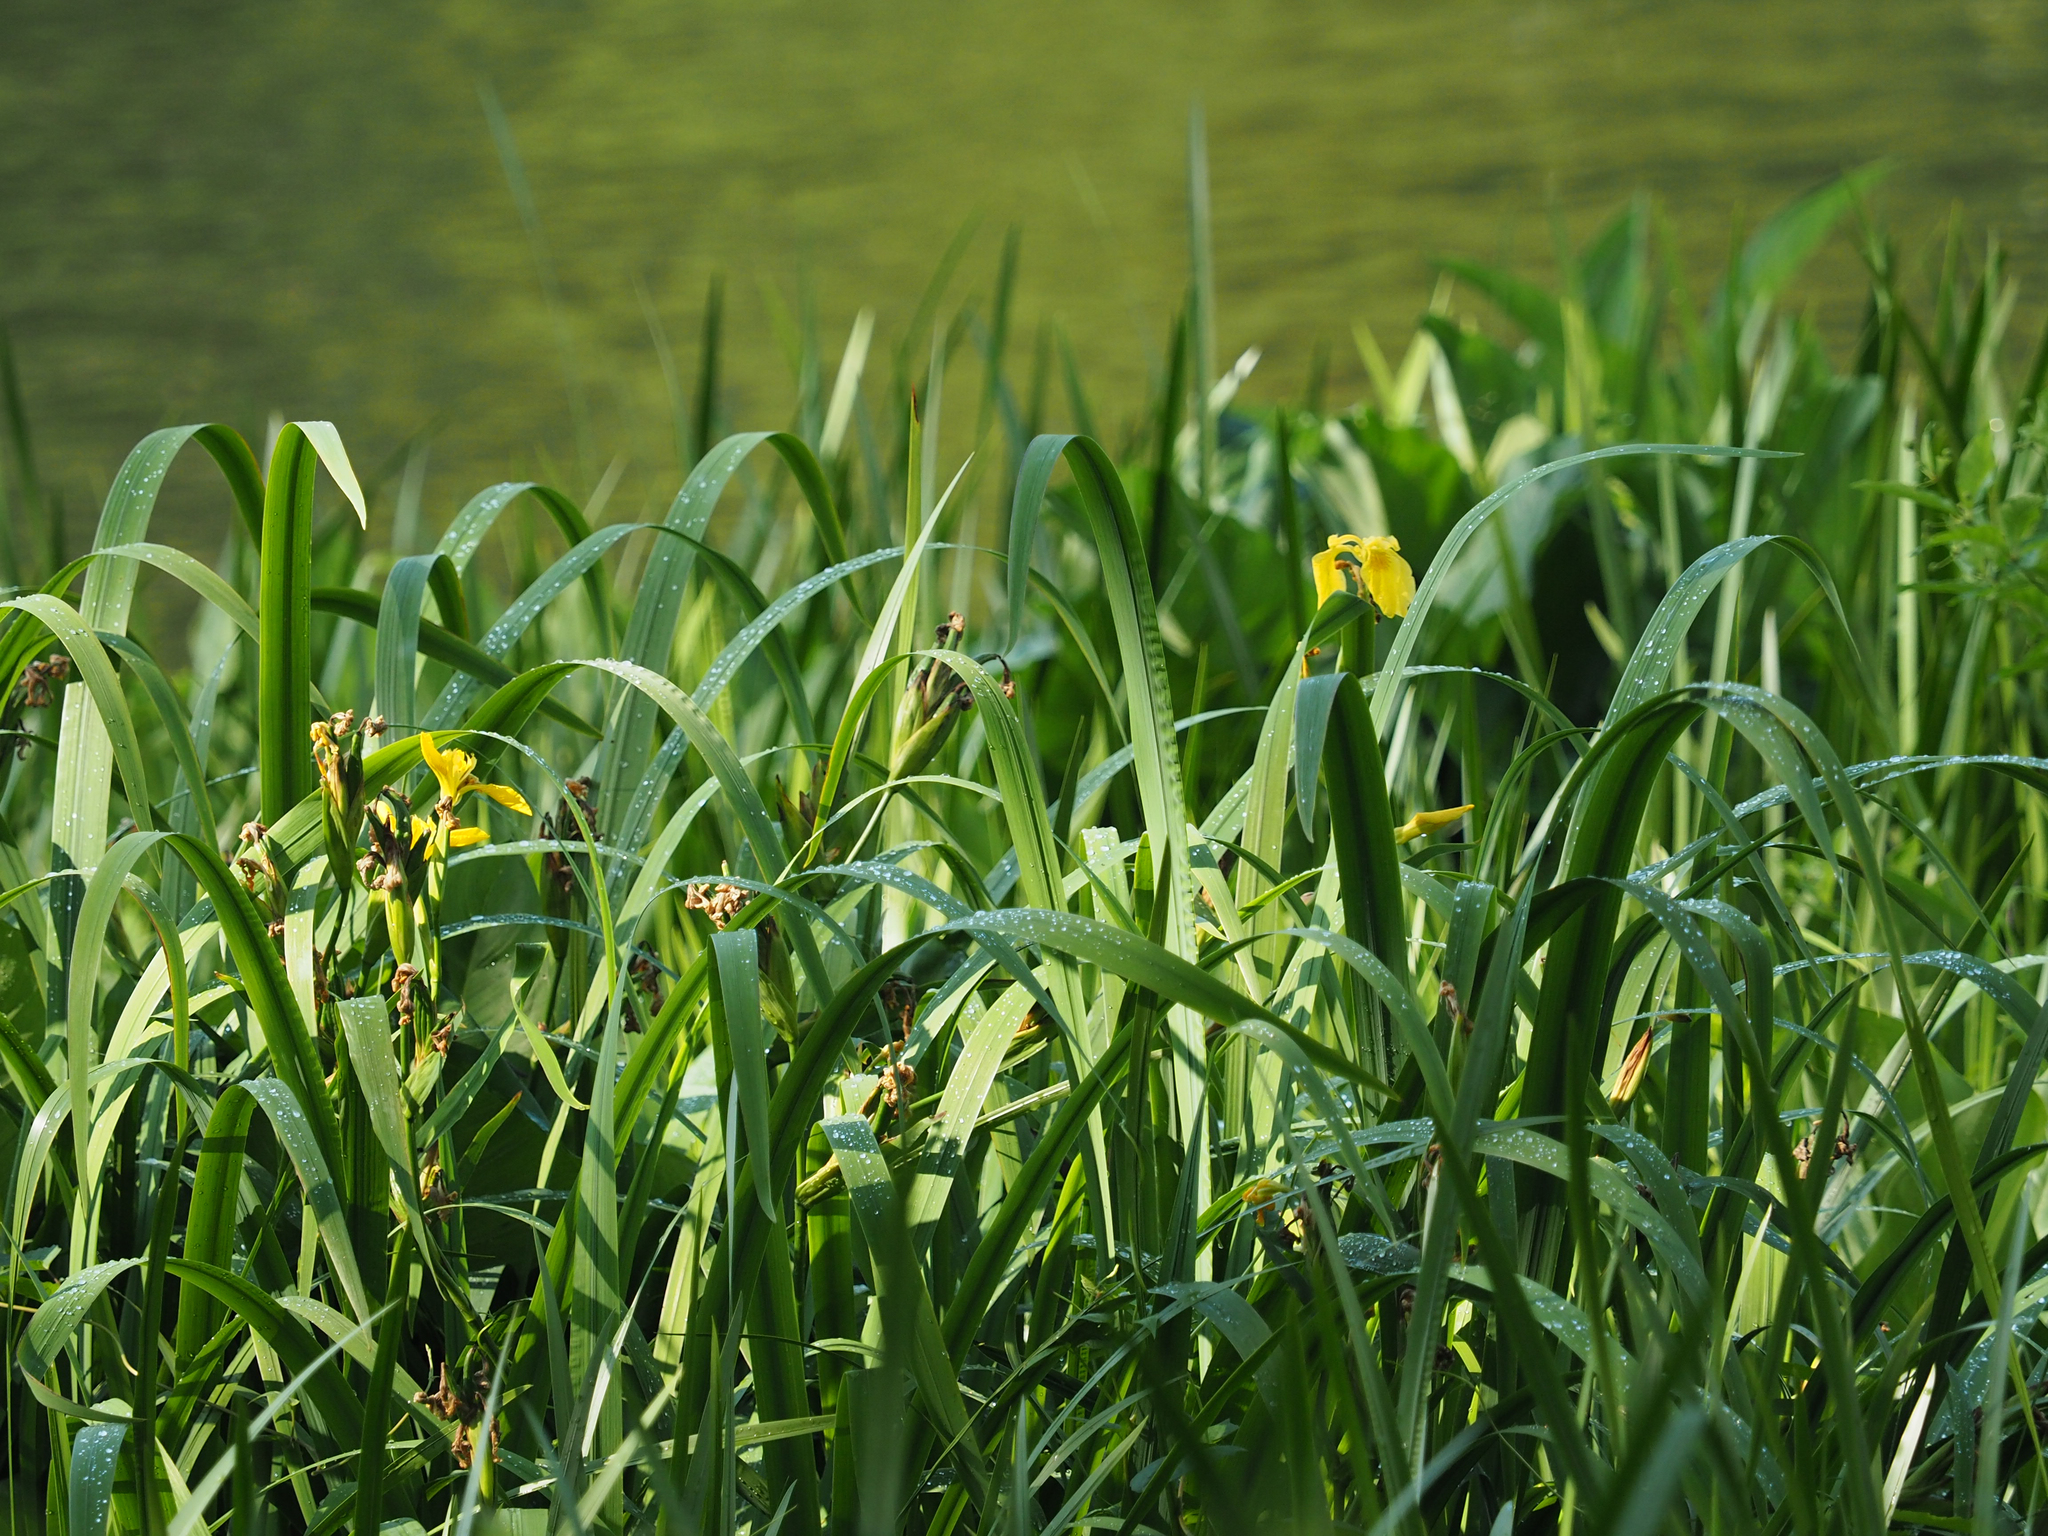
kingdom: Plantae
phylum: Tracheophyta
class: Liliopsida
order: Asparagales
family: Iridaceae
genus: Iris
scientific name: Iris pseudacorus
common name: Yellow flag
